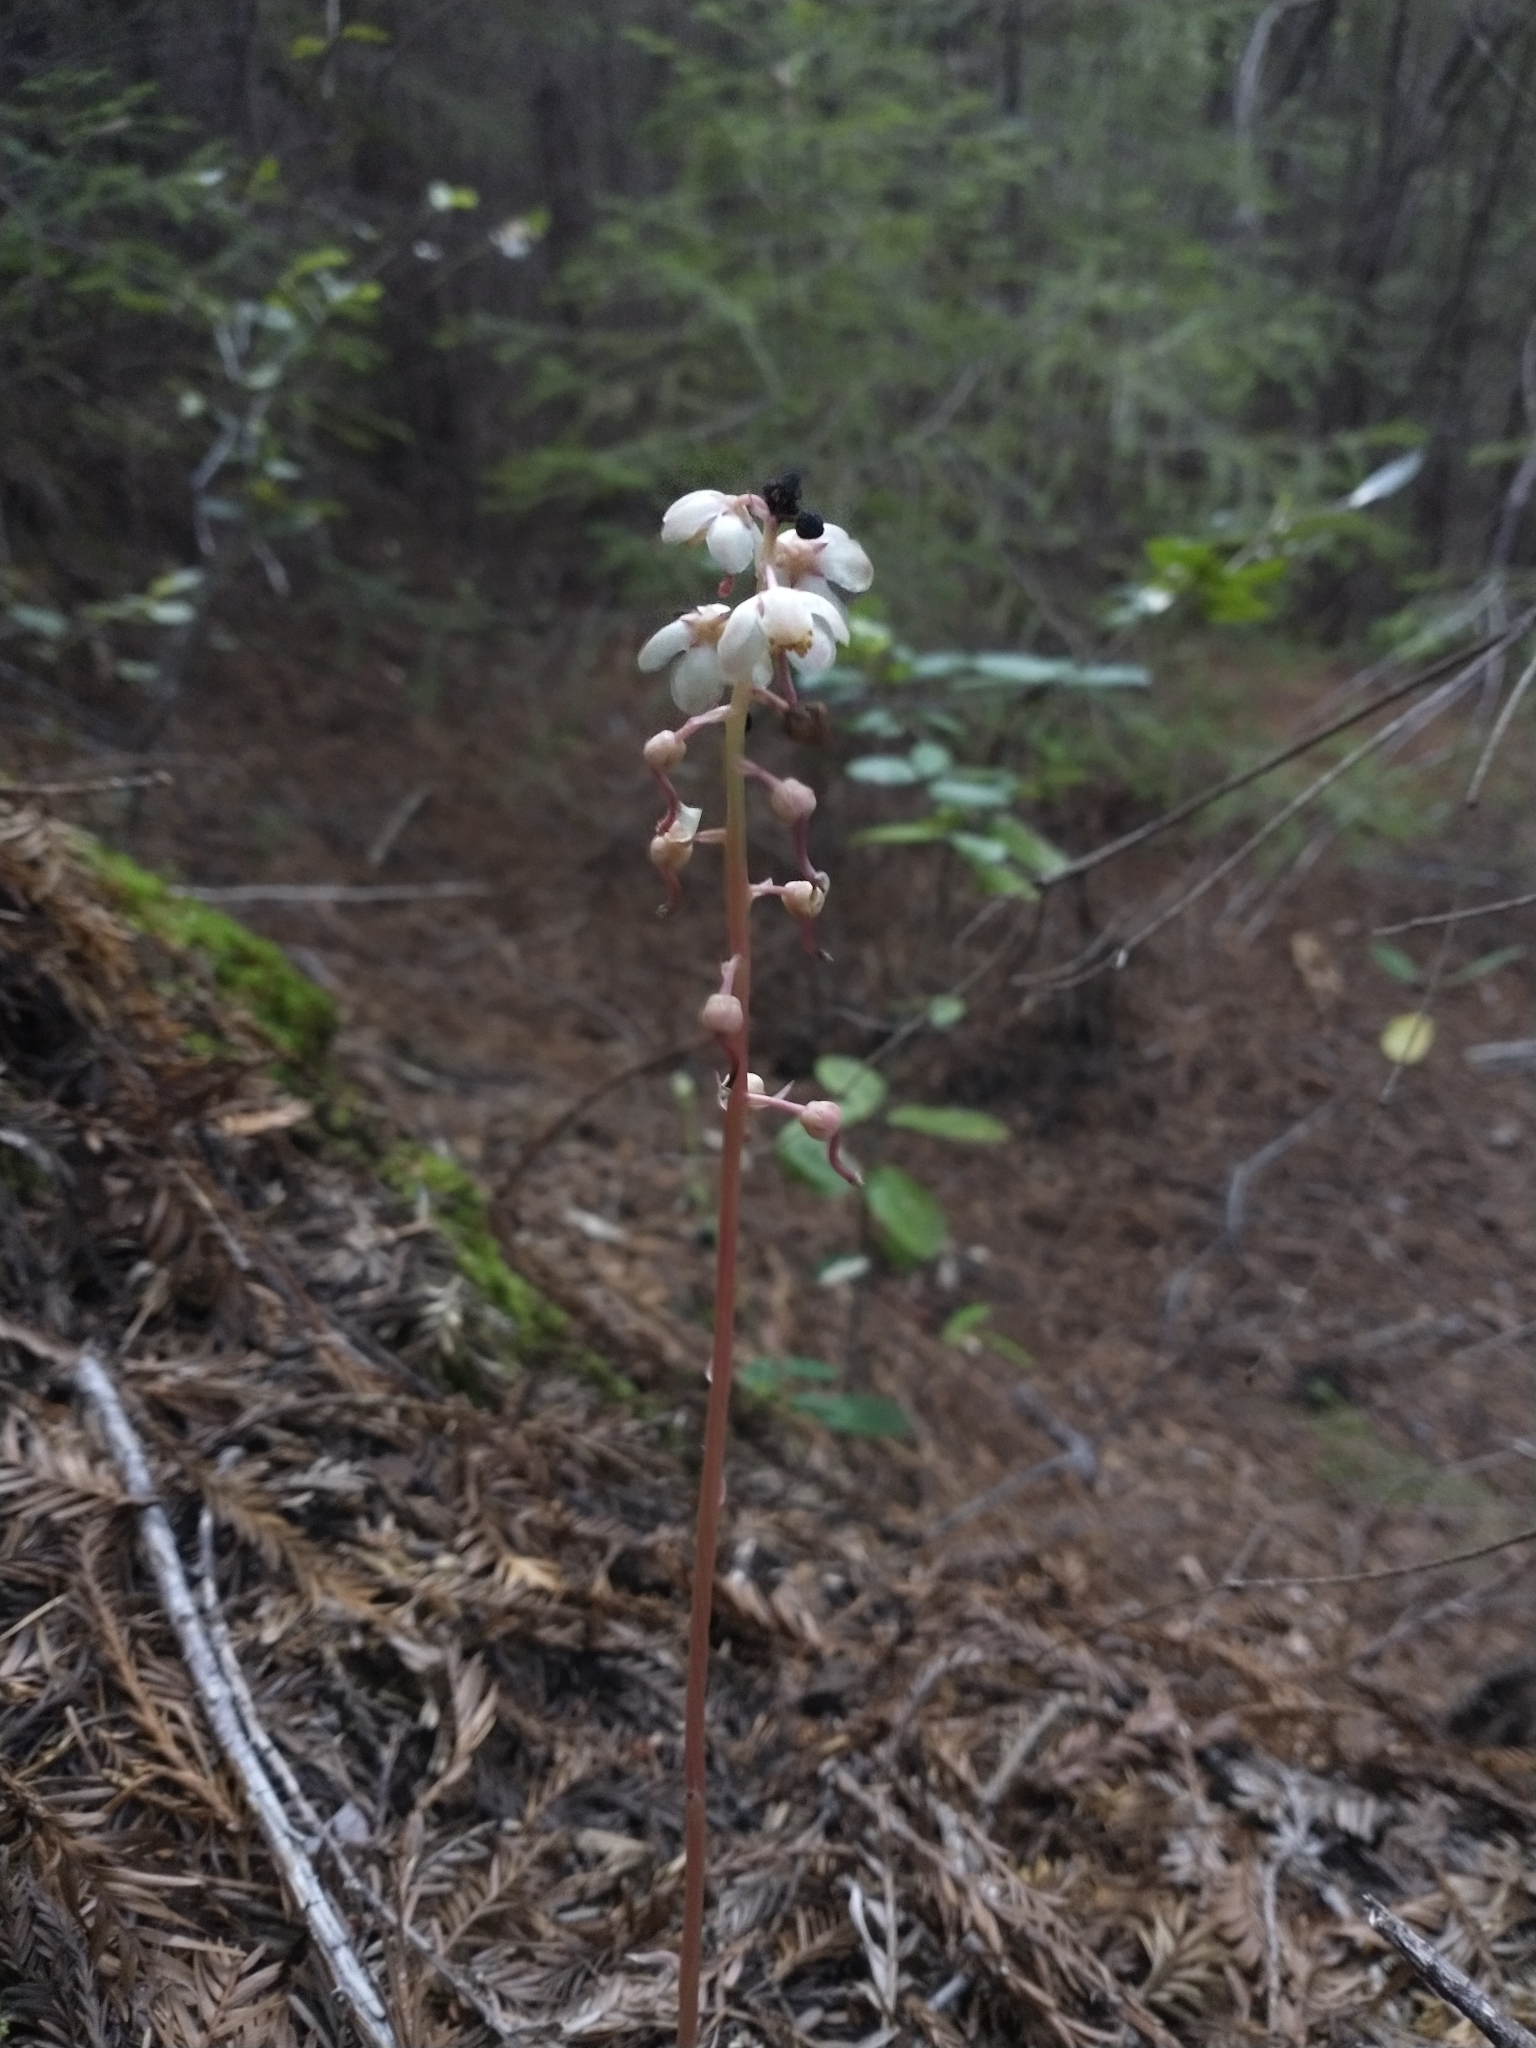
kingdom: Plantae
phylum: Tracheophyta
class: Magnoliopsida
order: Ericales
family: Ericaceae
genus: Pyrola
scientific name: Pyrola aphylla
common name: Leafless wintergreen
